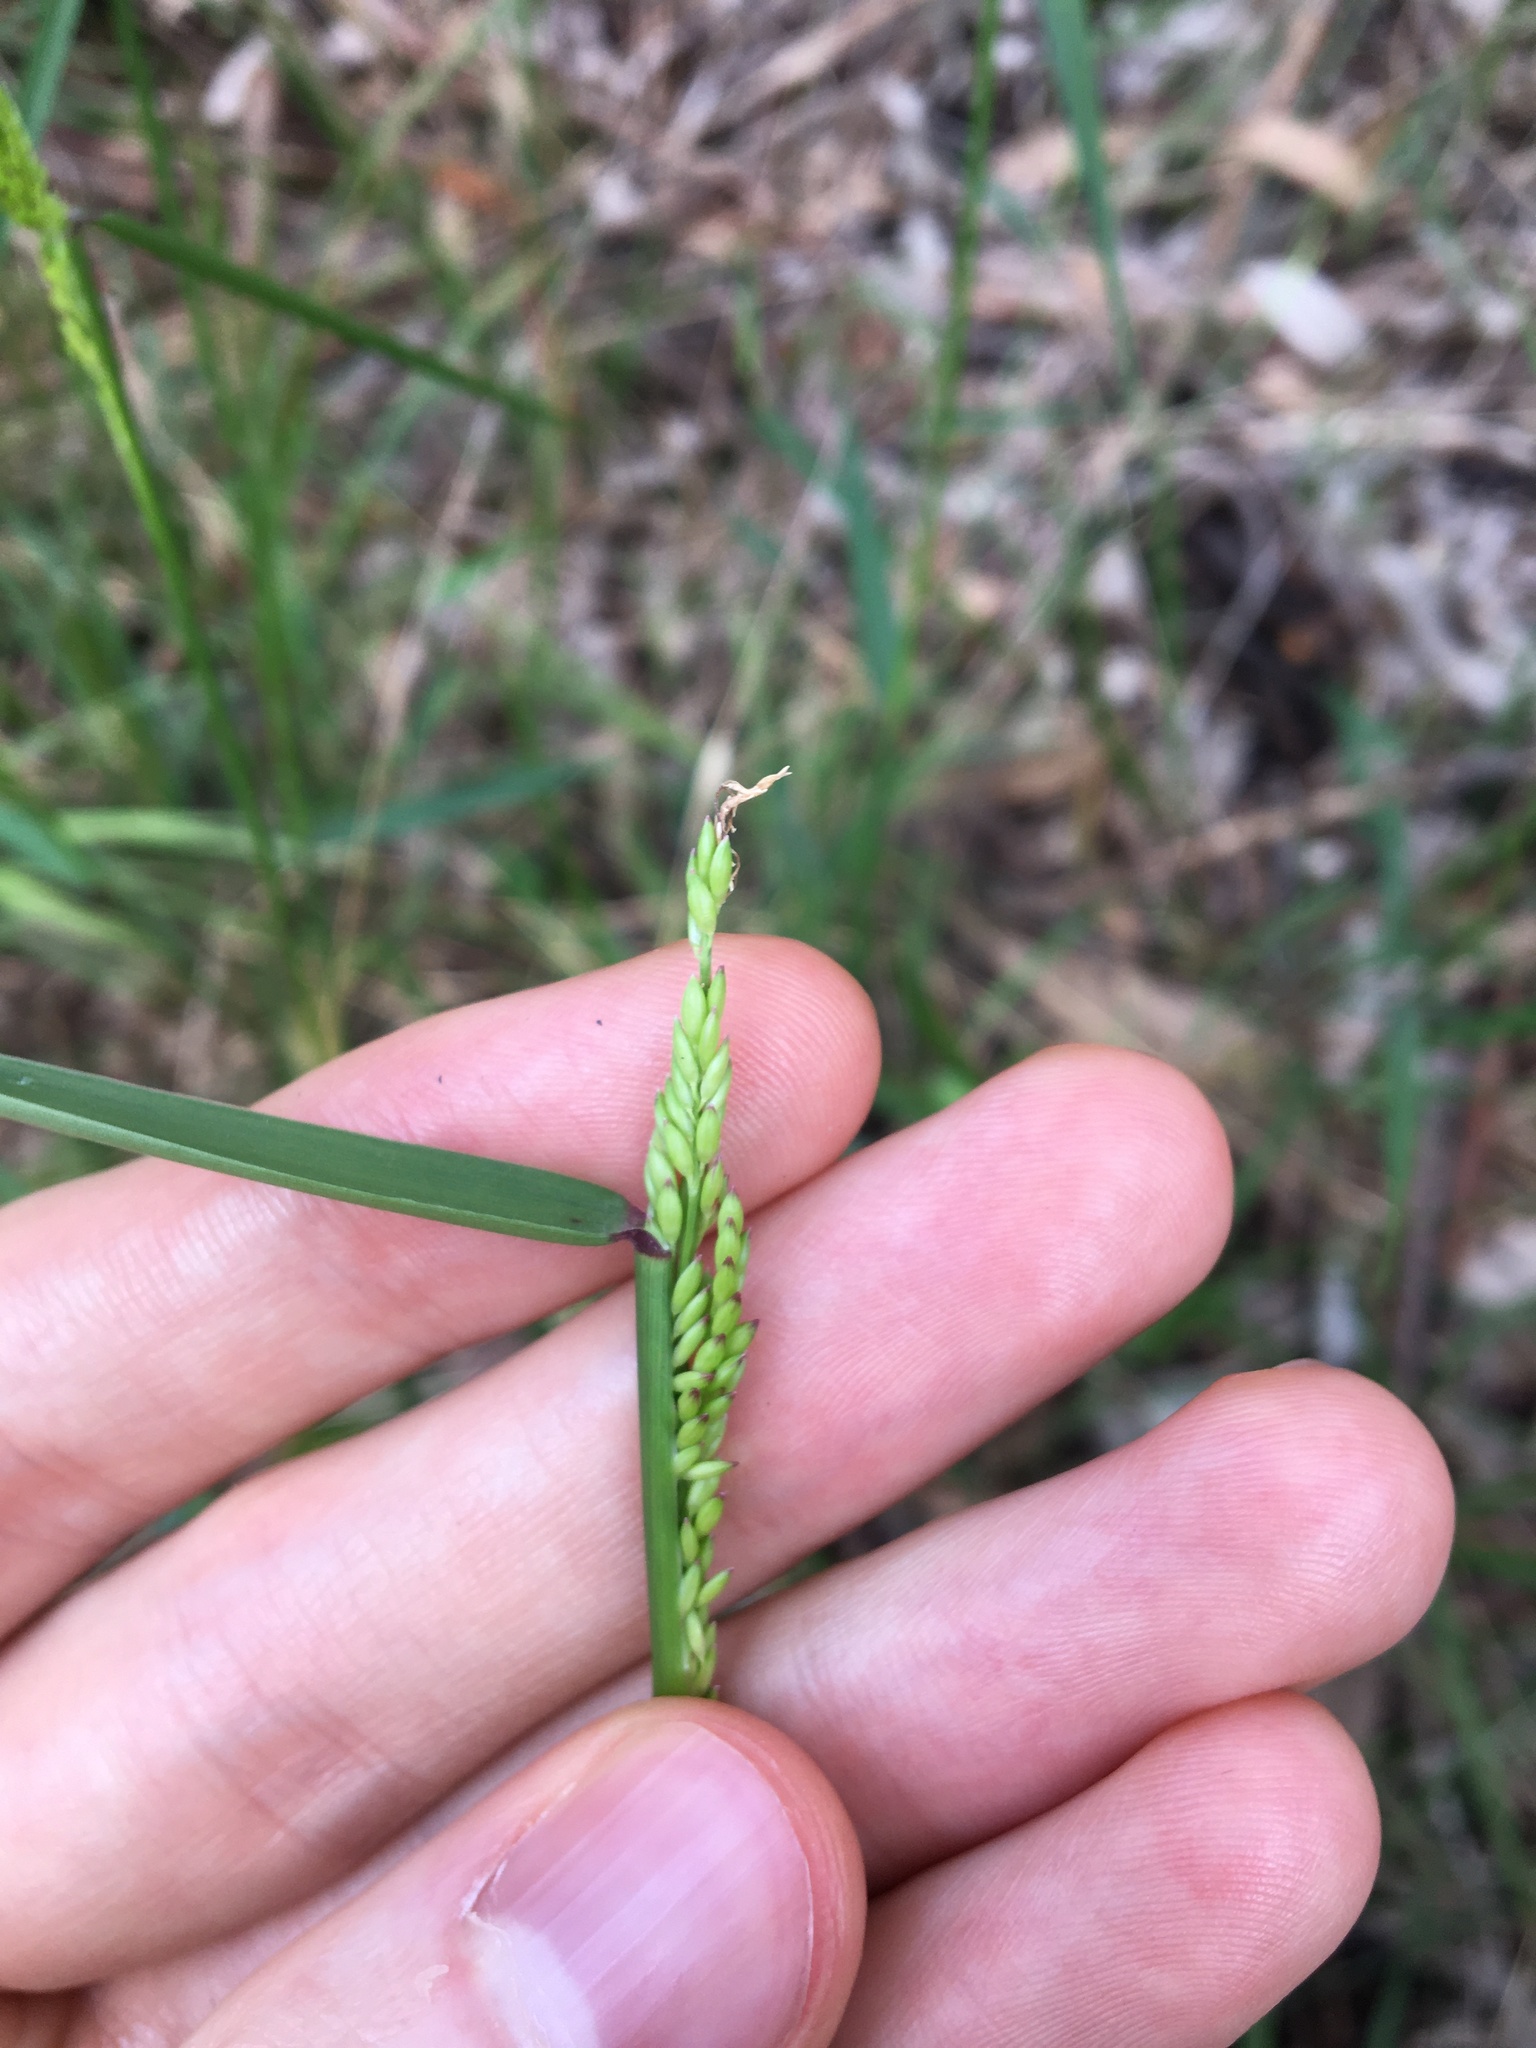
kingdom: Plantae
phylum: Tracheophyta
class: Liliopsida
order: Poales
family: Poaceae
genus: Entolasia
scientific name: Entolasia marginata
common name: Australian panicgrass
